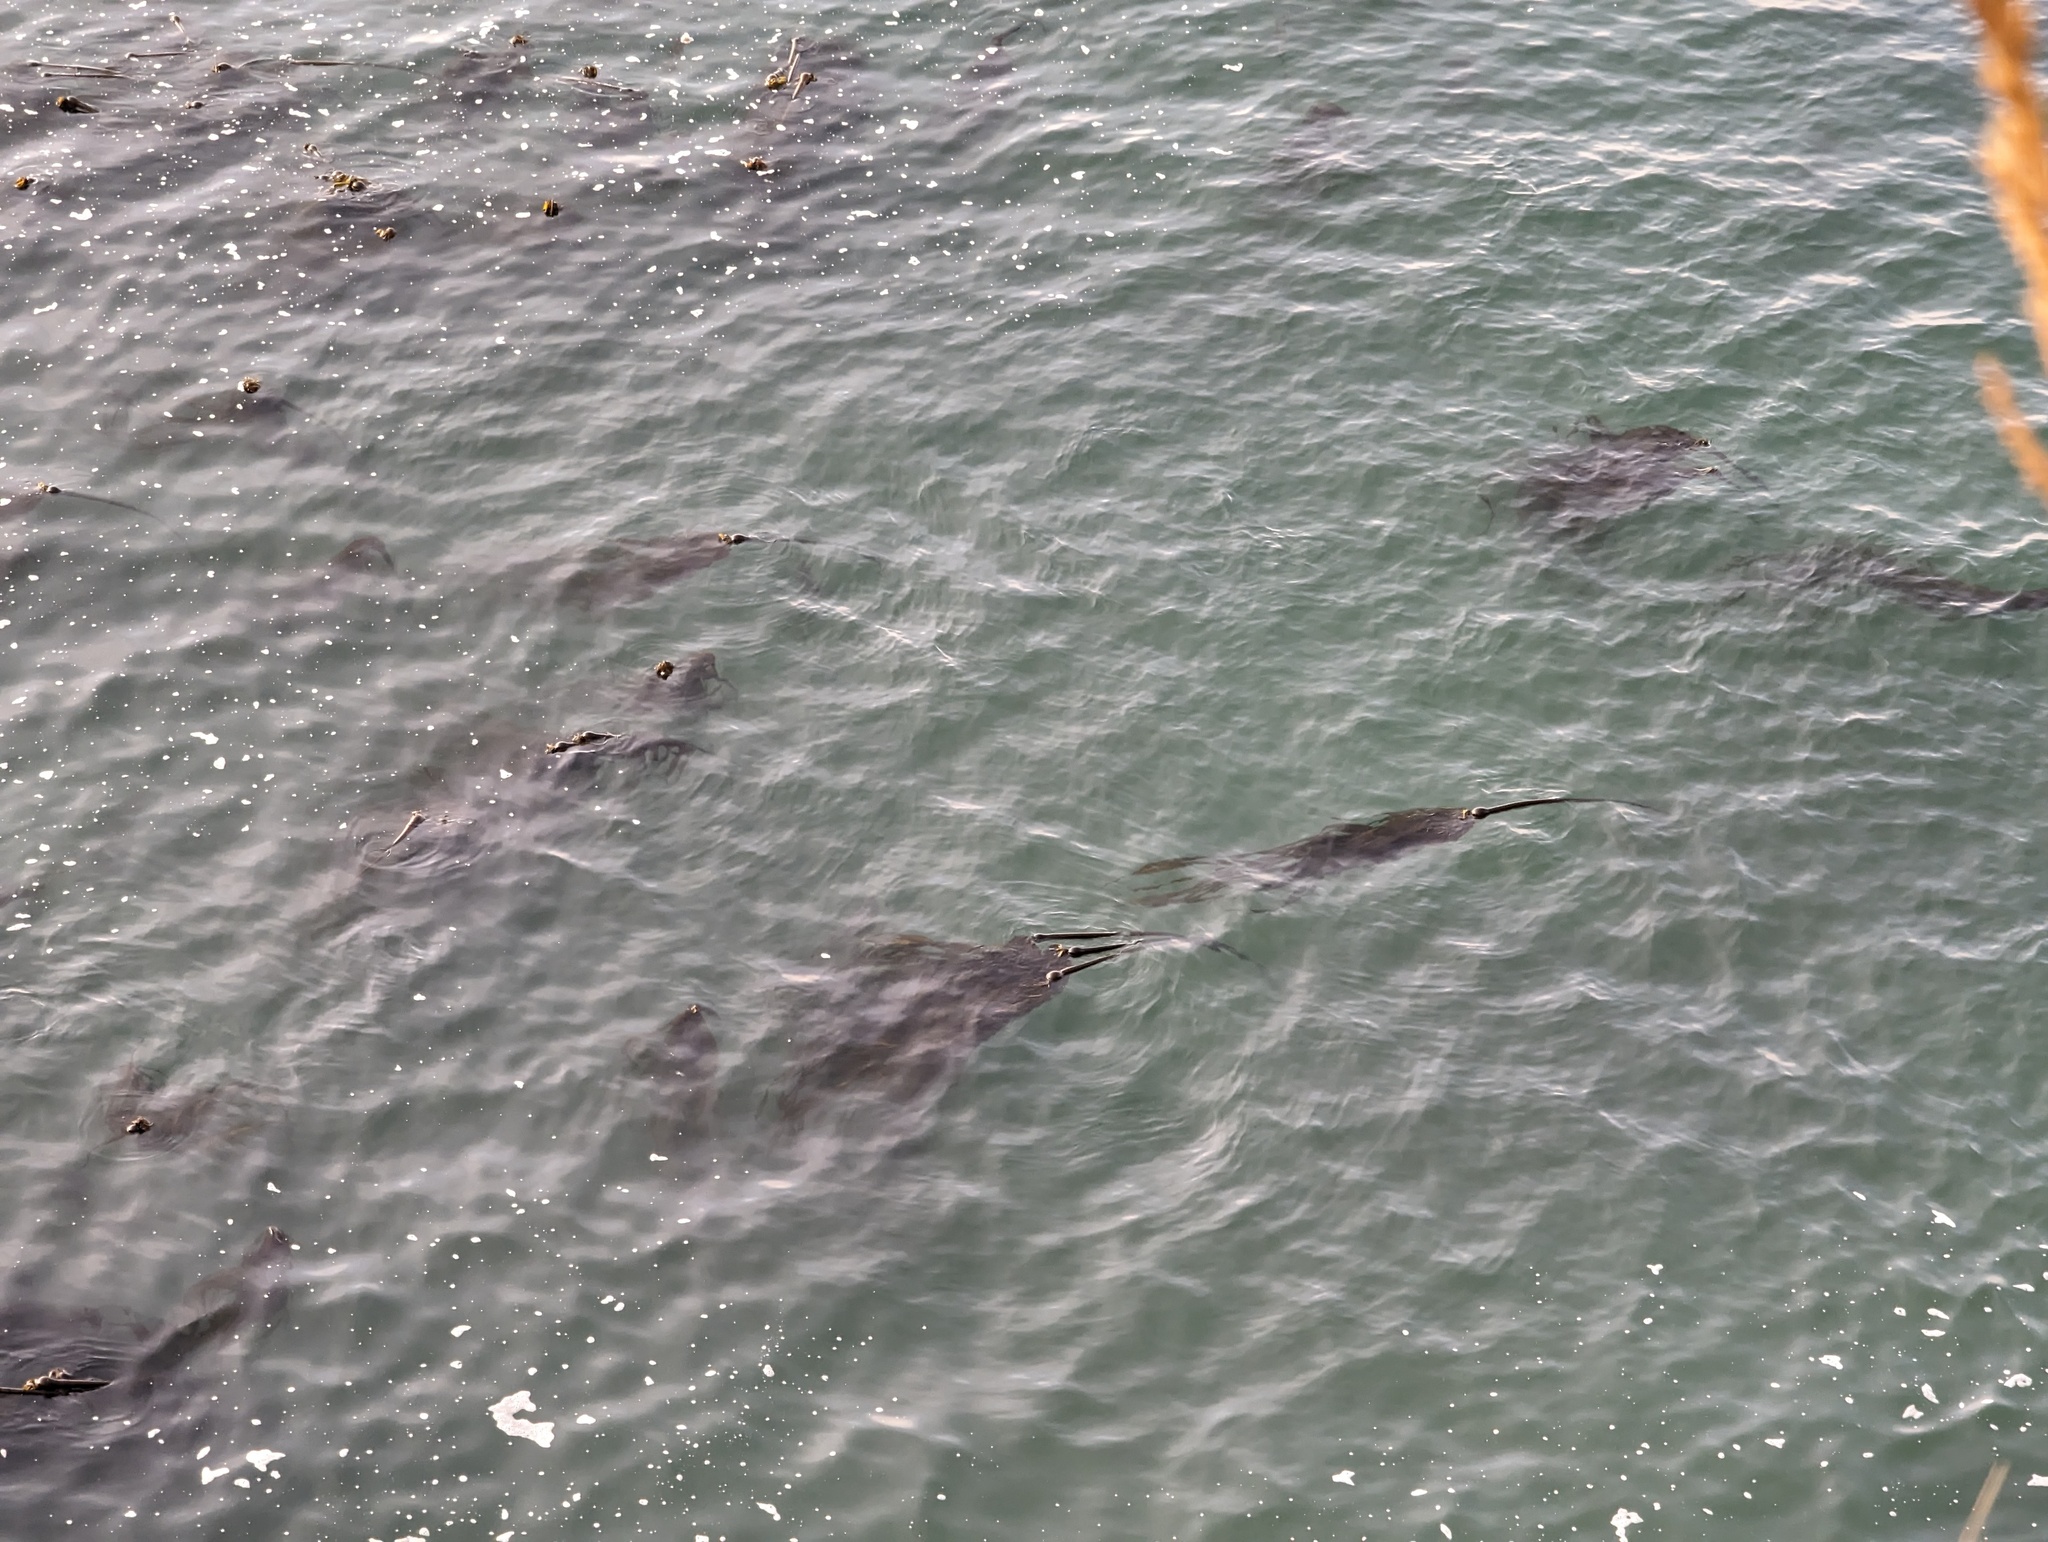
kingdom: Chromista
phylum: Ochrophyta
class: Phaeophyceae
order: Laminariales
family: Laminariaceae
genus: Nereocystis
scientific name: Nereocystis luetkeana
